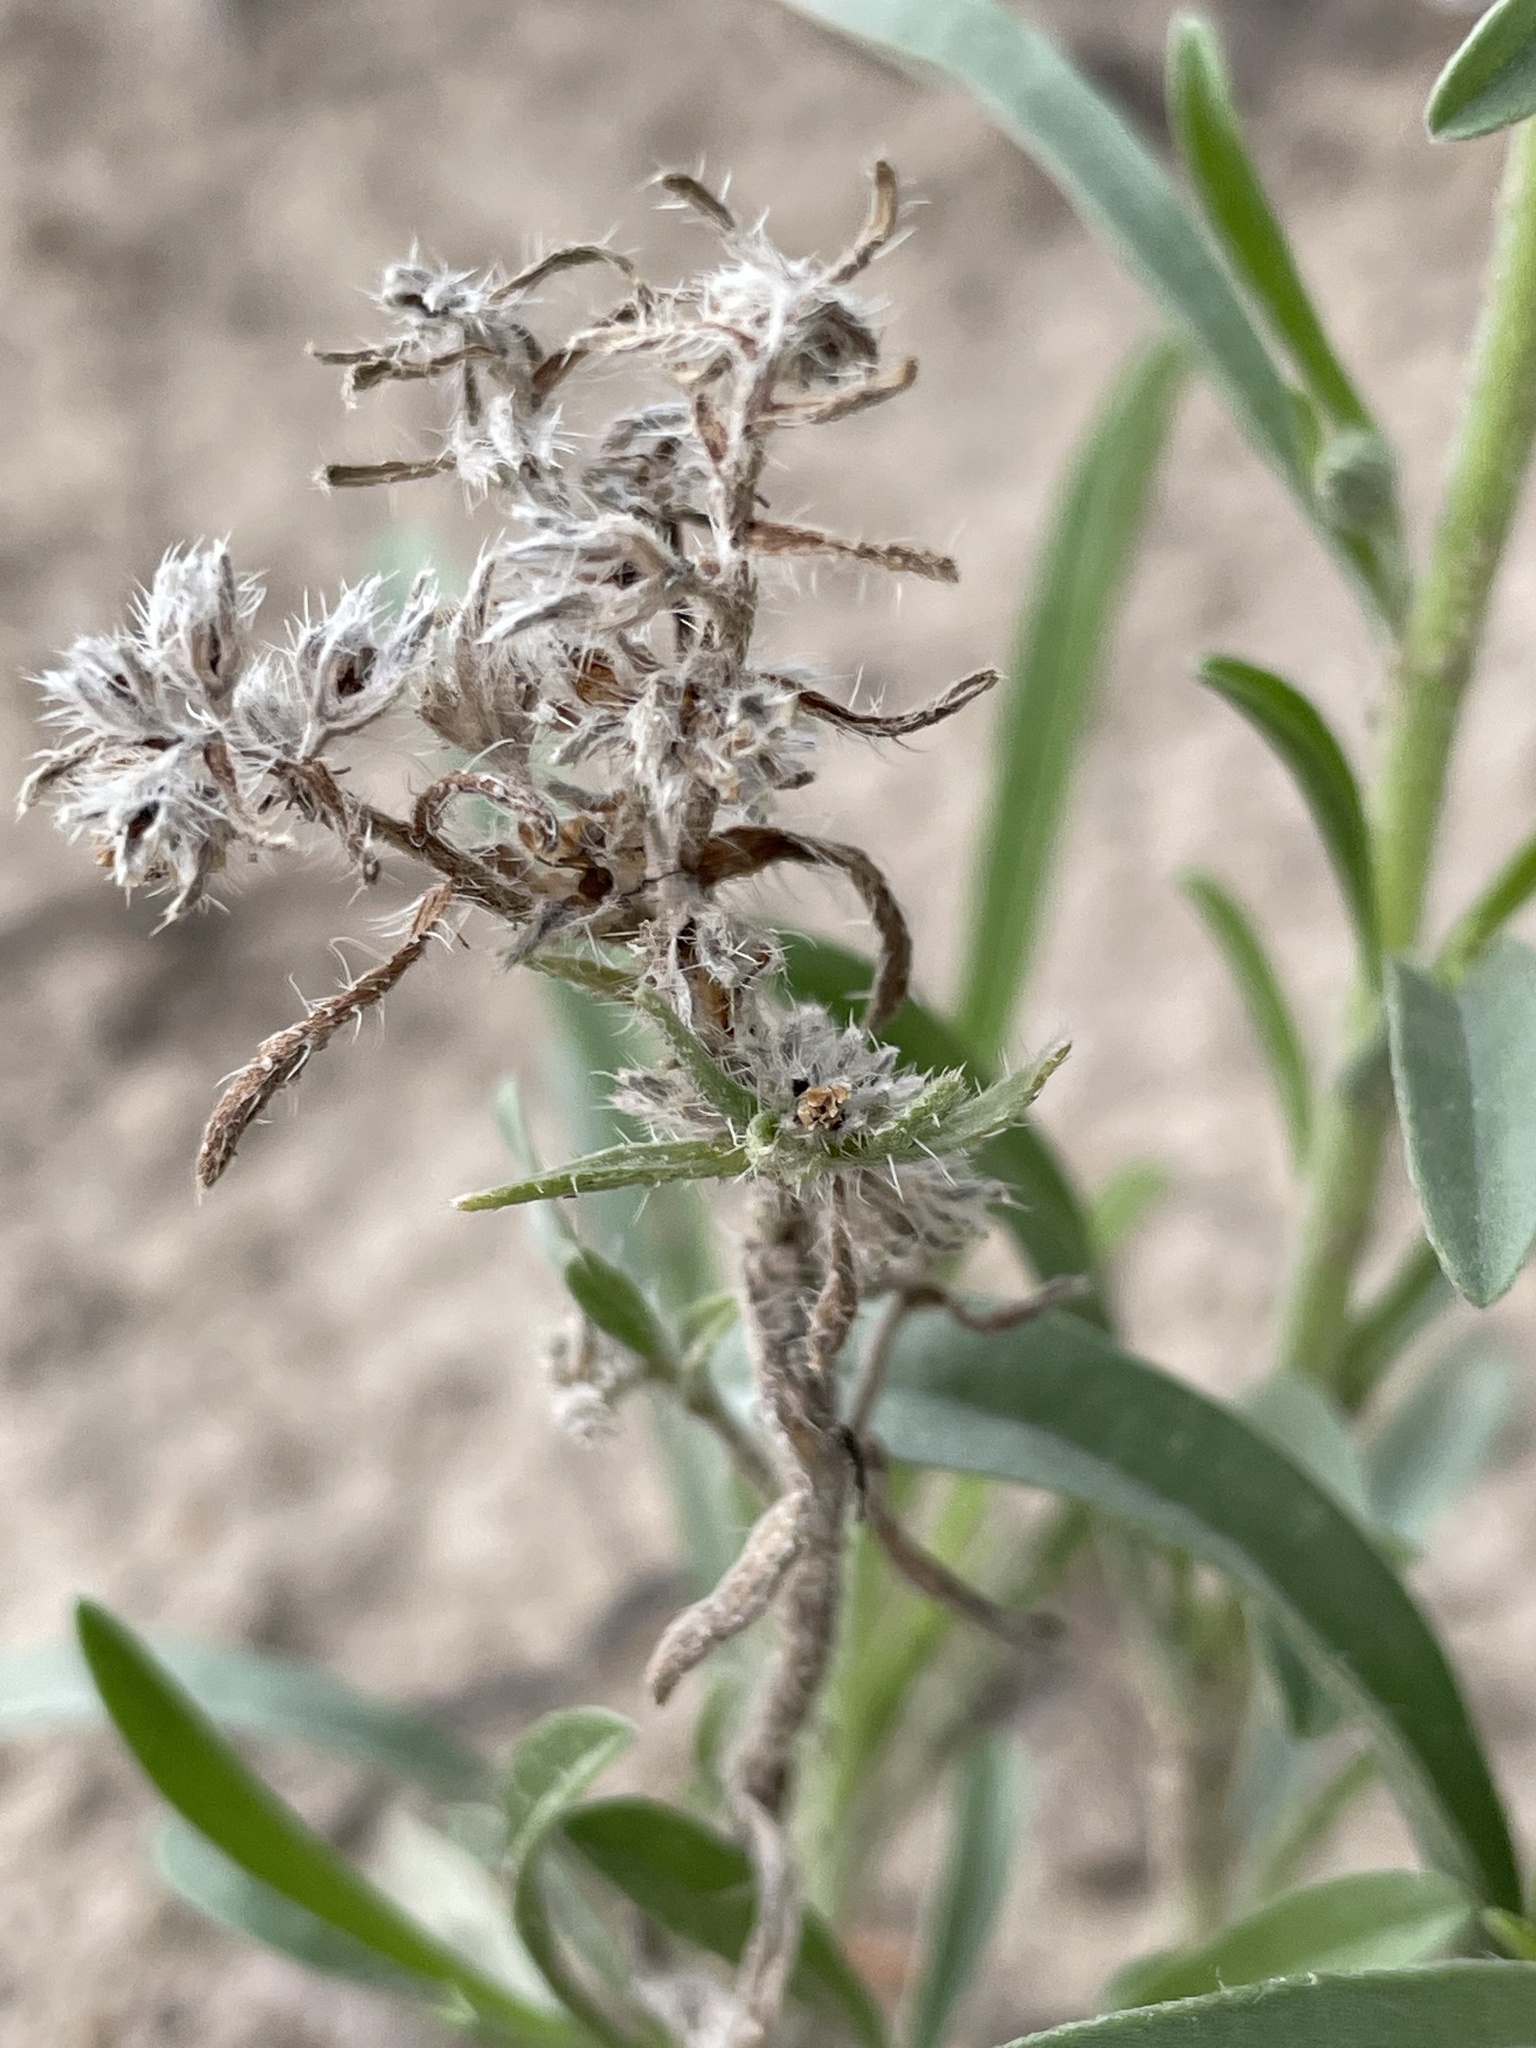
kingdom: Plantae
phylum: Tracheophyta
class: Magnoliopsida
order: Boraginales
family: Boraginaceae
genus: Oreocarya
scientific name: Oreocarya suffruticosa
